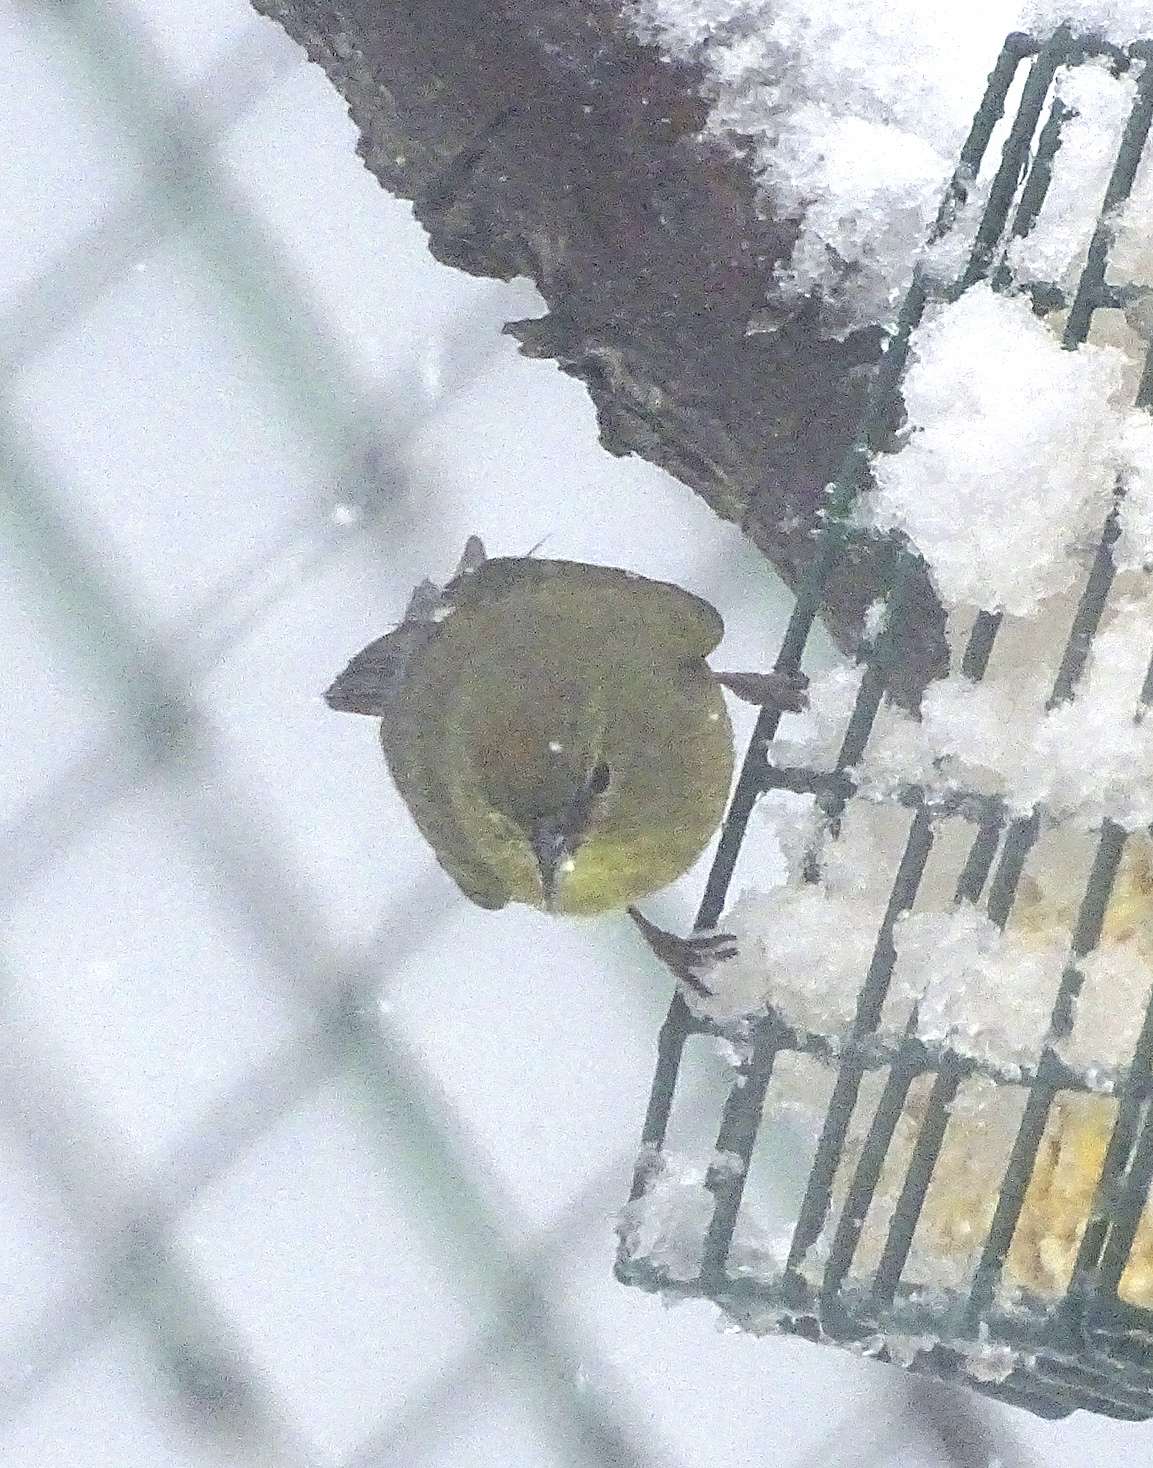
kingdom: Animalia
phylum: Chordata
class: Aves
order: Passeriformes
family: Parulidae
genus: Leiothlypis
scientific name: Leiothlypis celata
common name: Orange-crowned warbler
